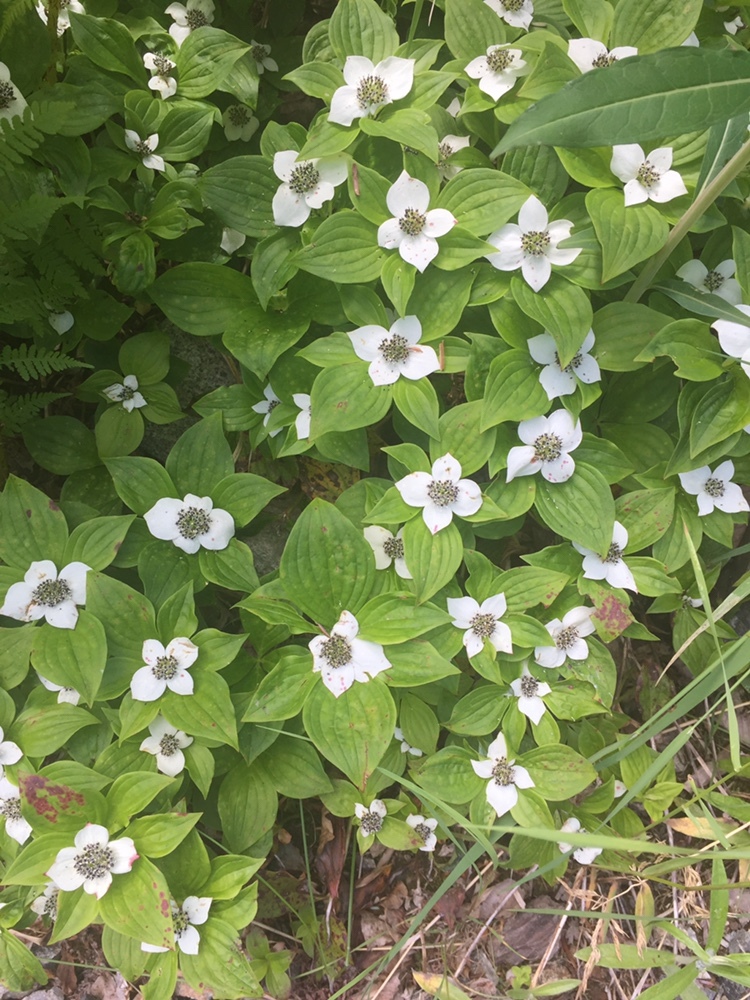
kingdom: Plantae
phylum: Tracheophyta
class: Magnoliopsida
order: Cornales
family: Cornaceae
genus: Cornus
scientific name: Cornus unalaschkensis
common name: Alaska bunchberry
